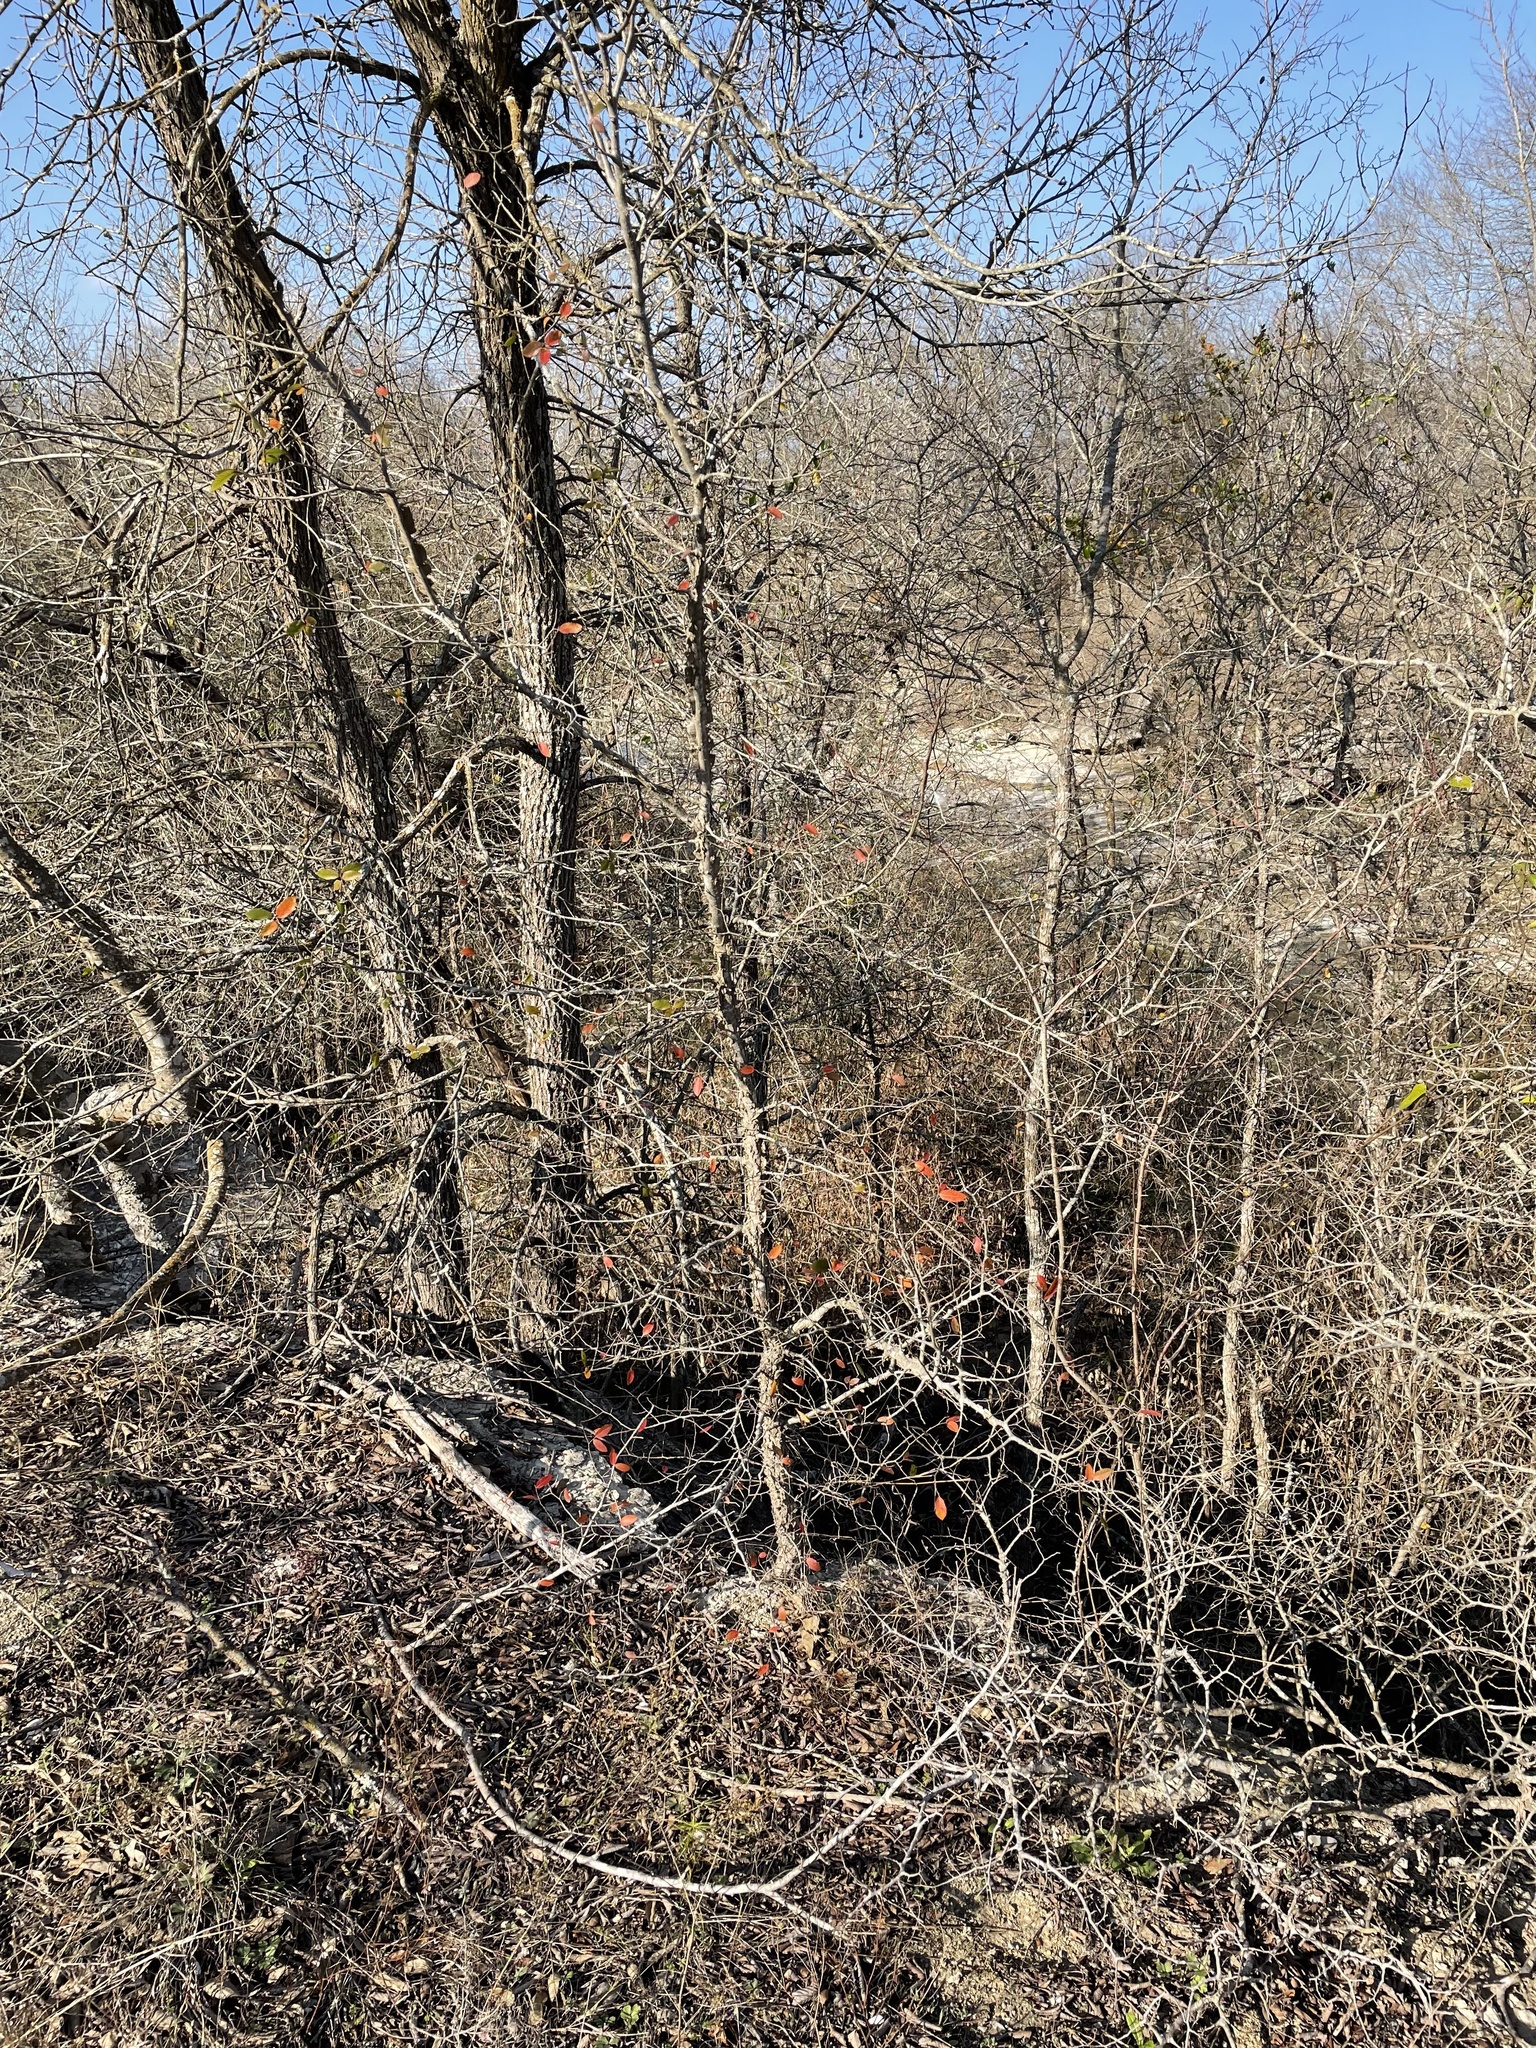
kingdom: Plantae
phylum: Tracheophyta
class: Magnoliopsida
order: Rosales
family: Ulmaceae
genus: Ulmus
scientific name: Ulmus crassifolia
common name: Basket elm
